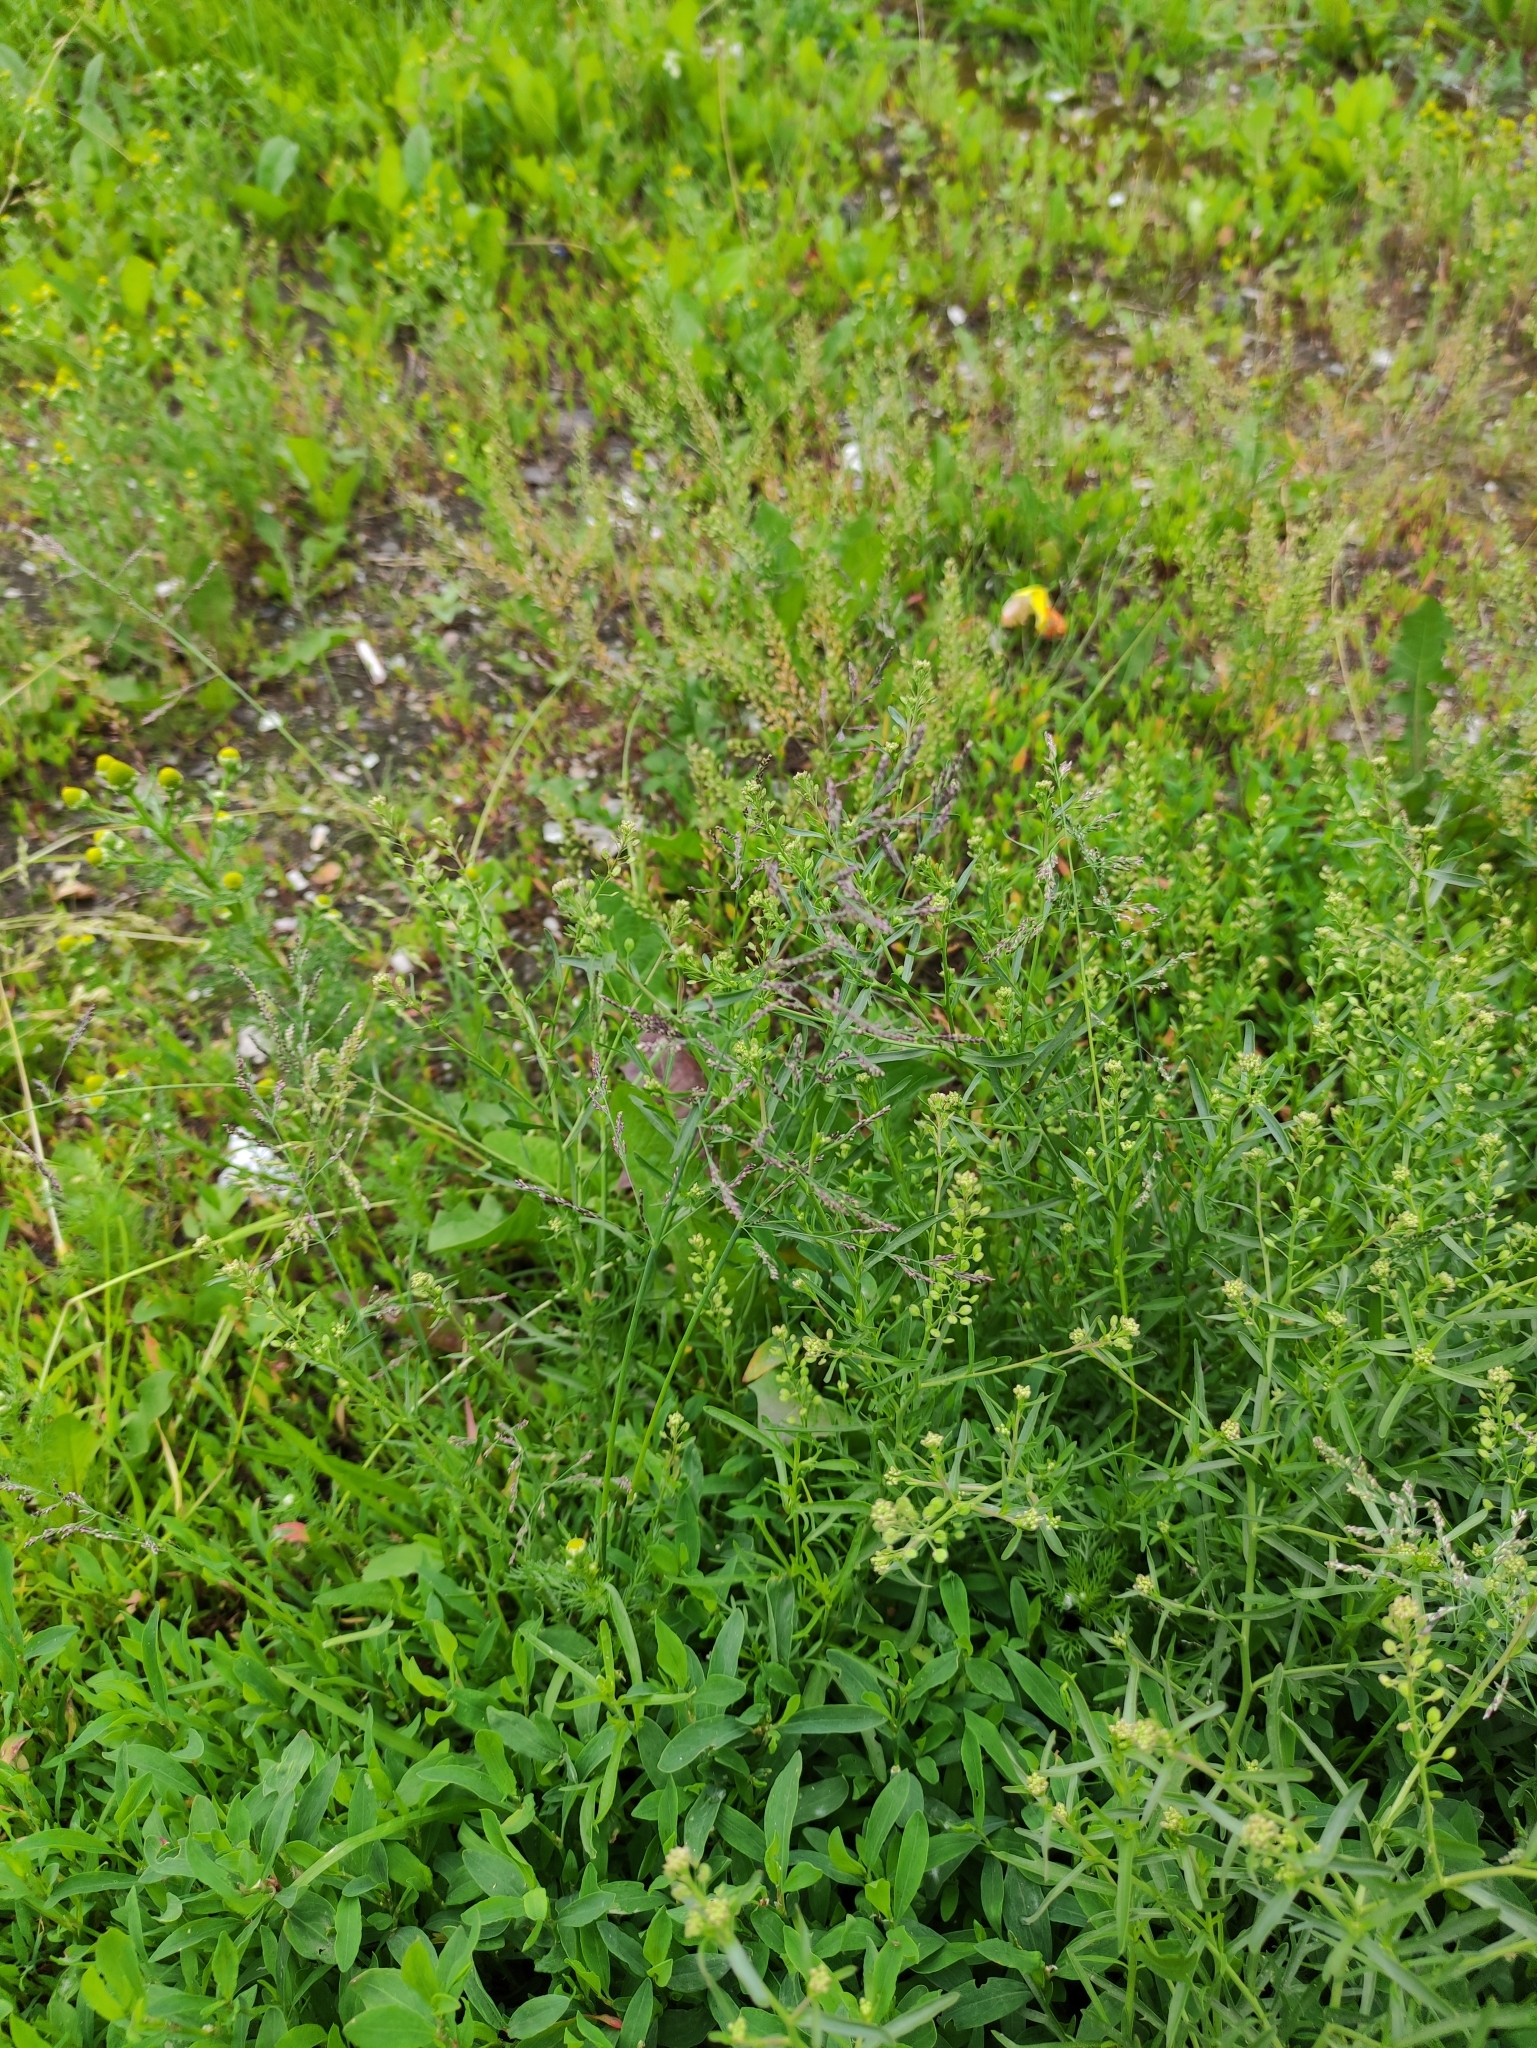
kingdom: Plantae
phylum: Tracheophyta
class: Liliopsida
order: Poales
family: Poaceae
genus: Puccinellia
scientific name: Puccinellia distans
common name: Weeping alkaligrass
